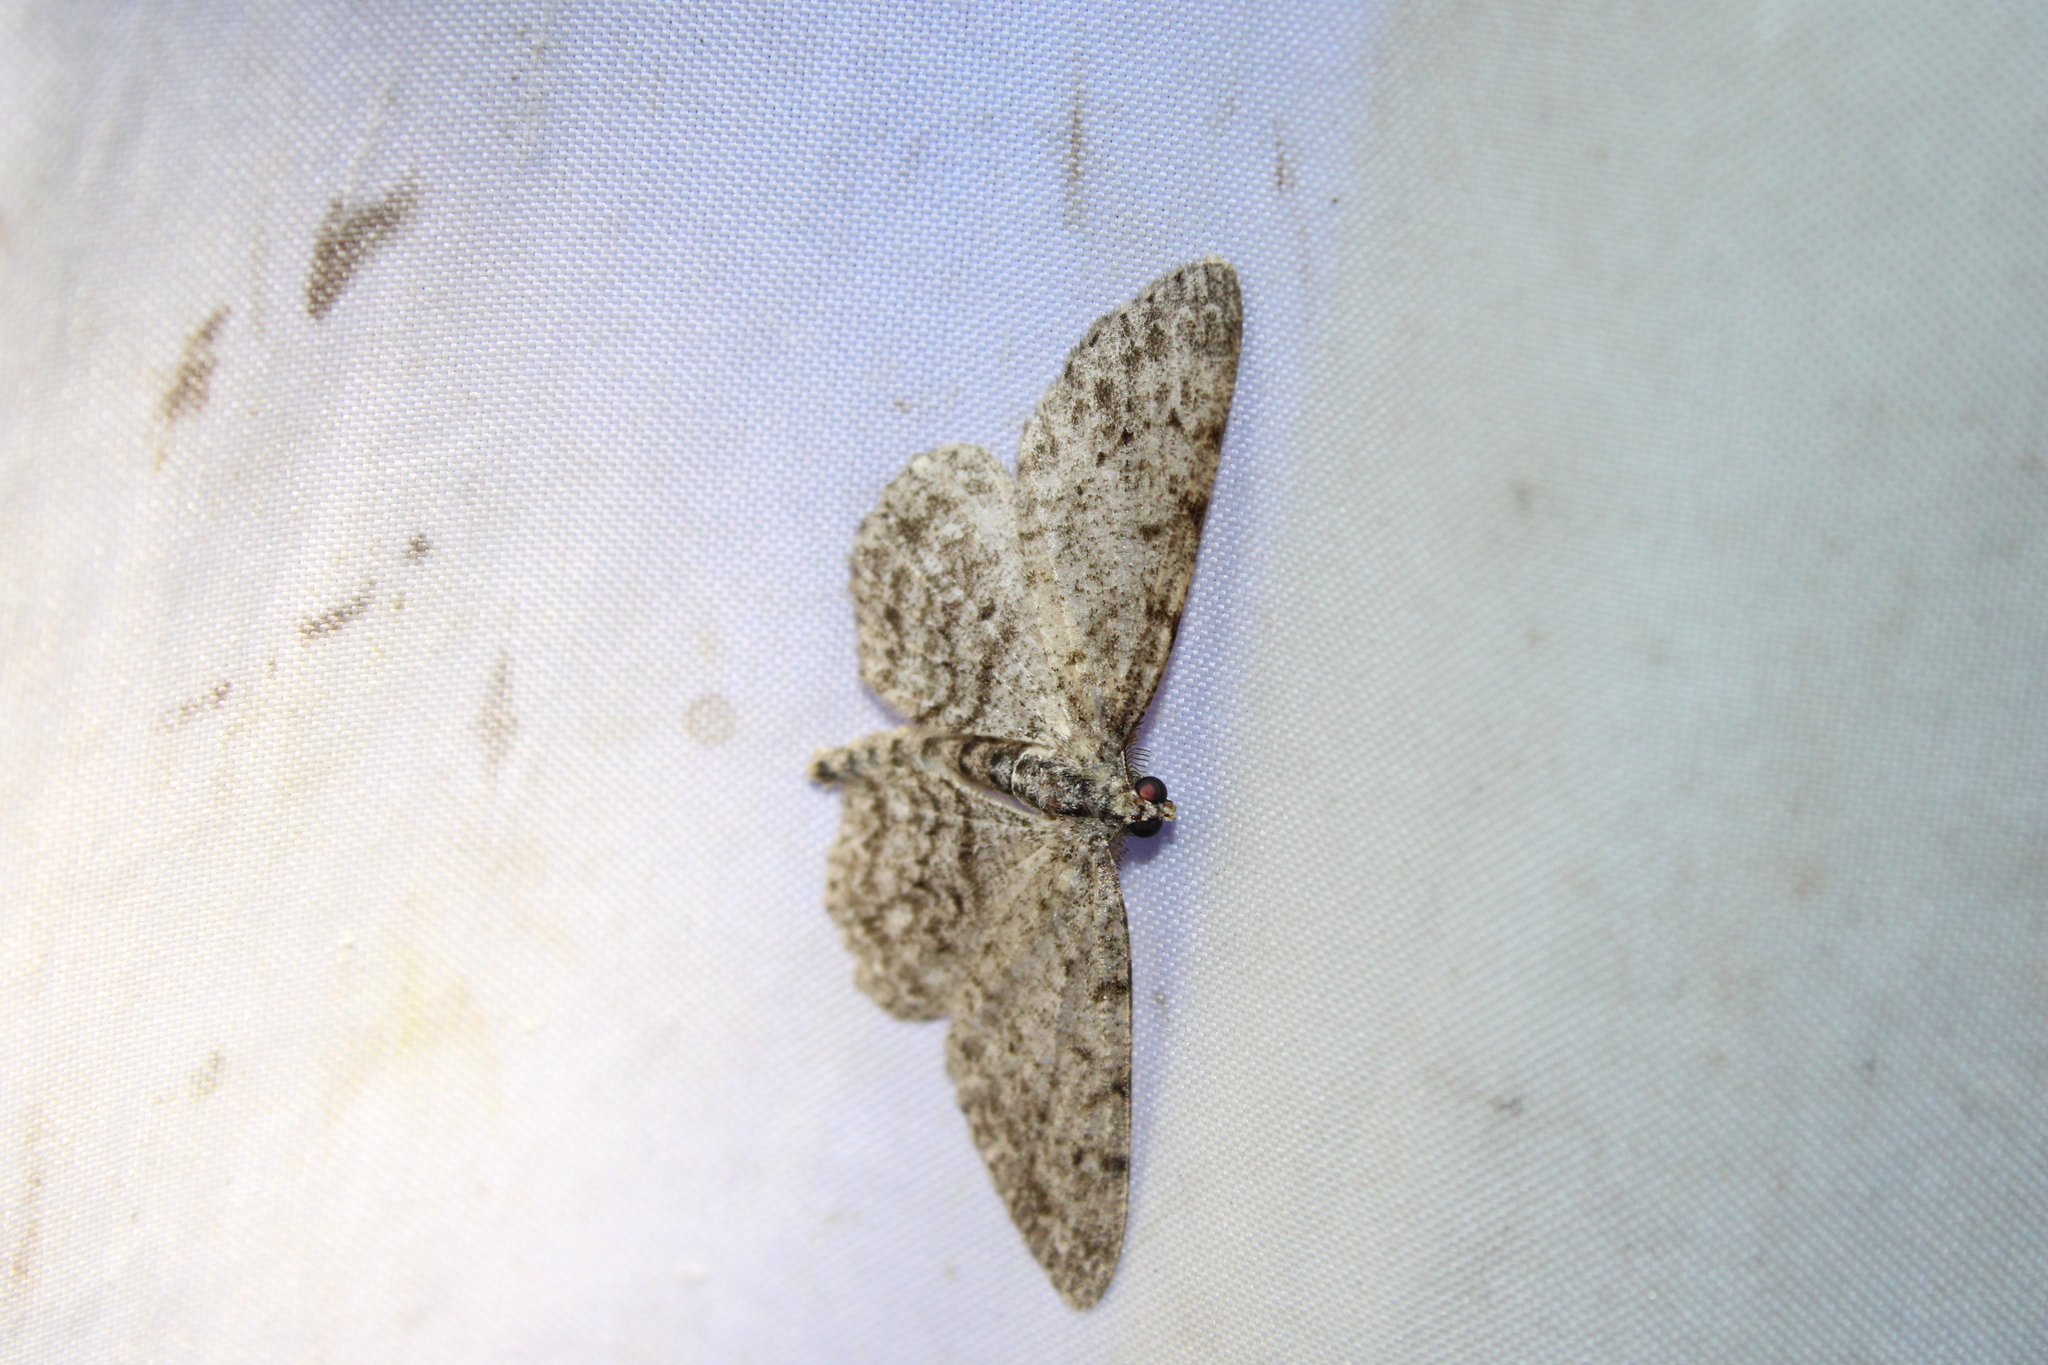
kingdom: Animalia
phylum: Arthropoda
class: Insecta
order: Lepidoptera
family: Geometridae
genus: Protoboarmia
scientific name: Protoboarmia porcelaria
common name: Porcelain gray
